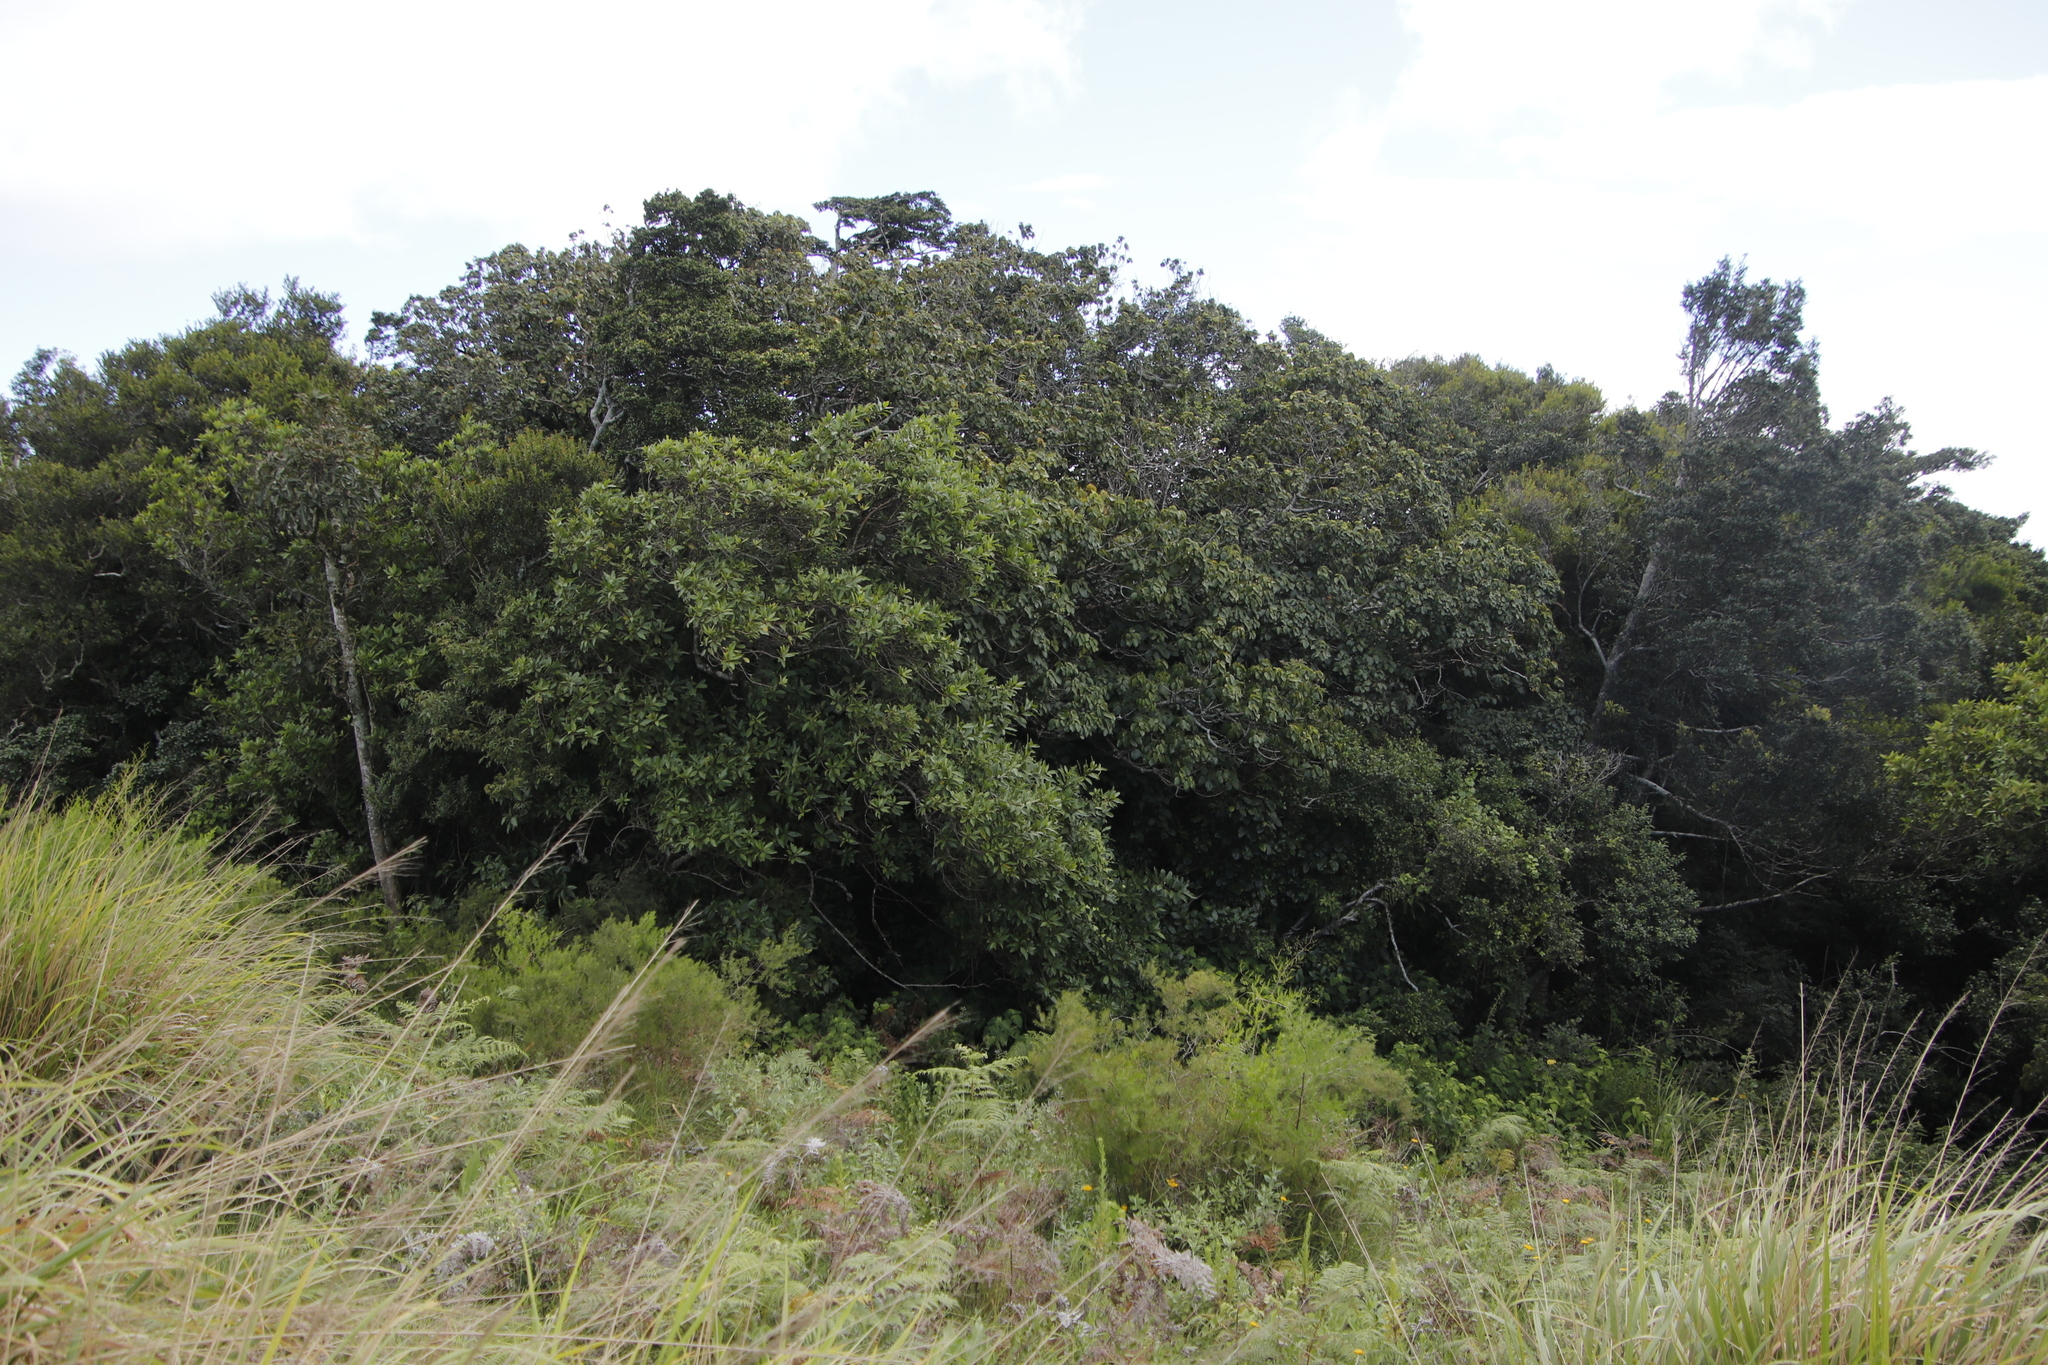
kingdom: Plantae
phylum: Tracheophyta
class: Magnoliopsida
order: Ericales
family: Primulaceae
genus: Maesa
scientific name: Maesa lanceolata
